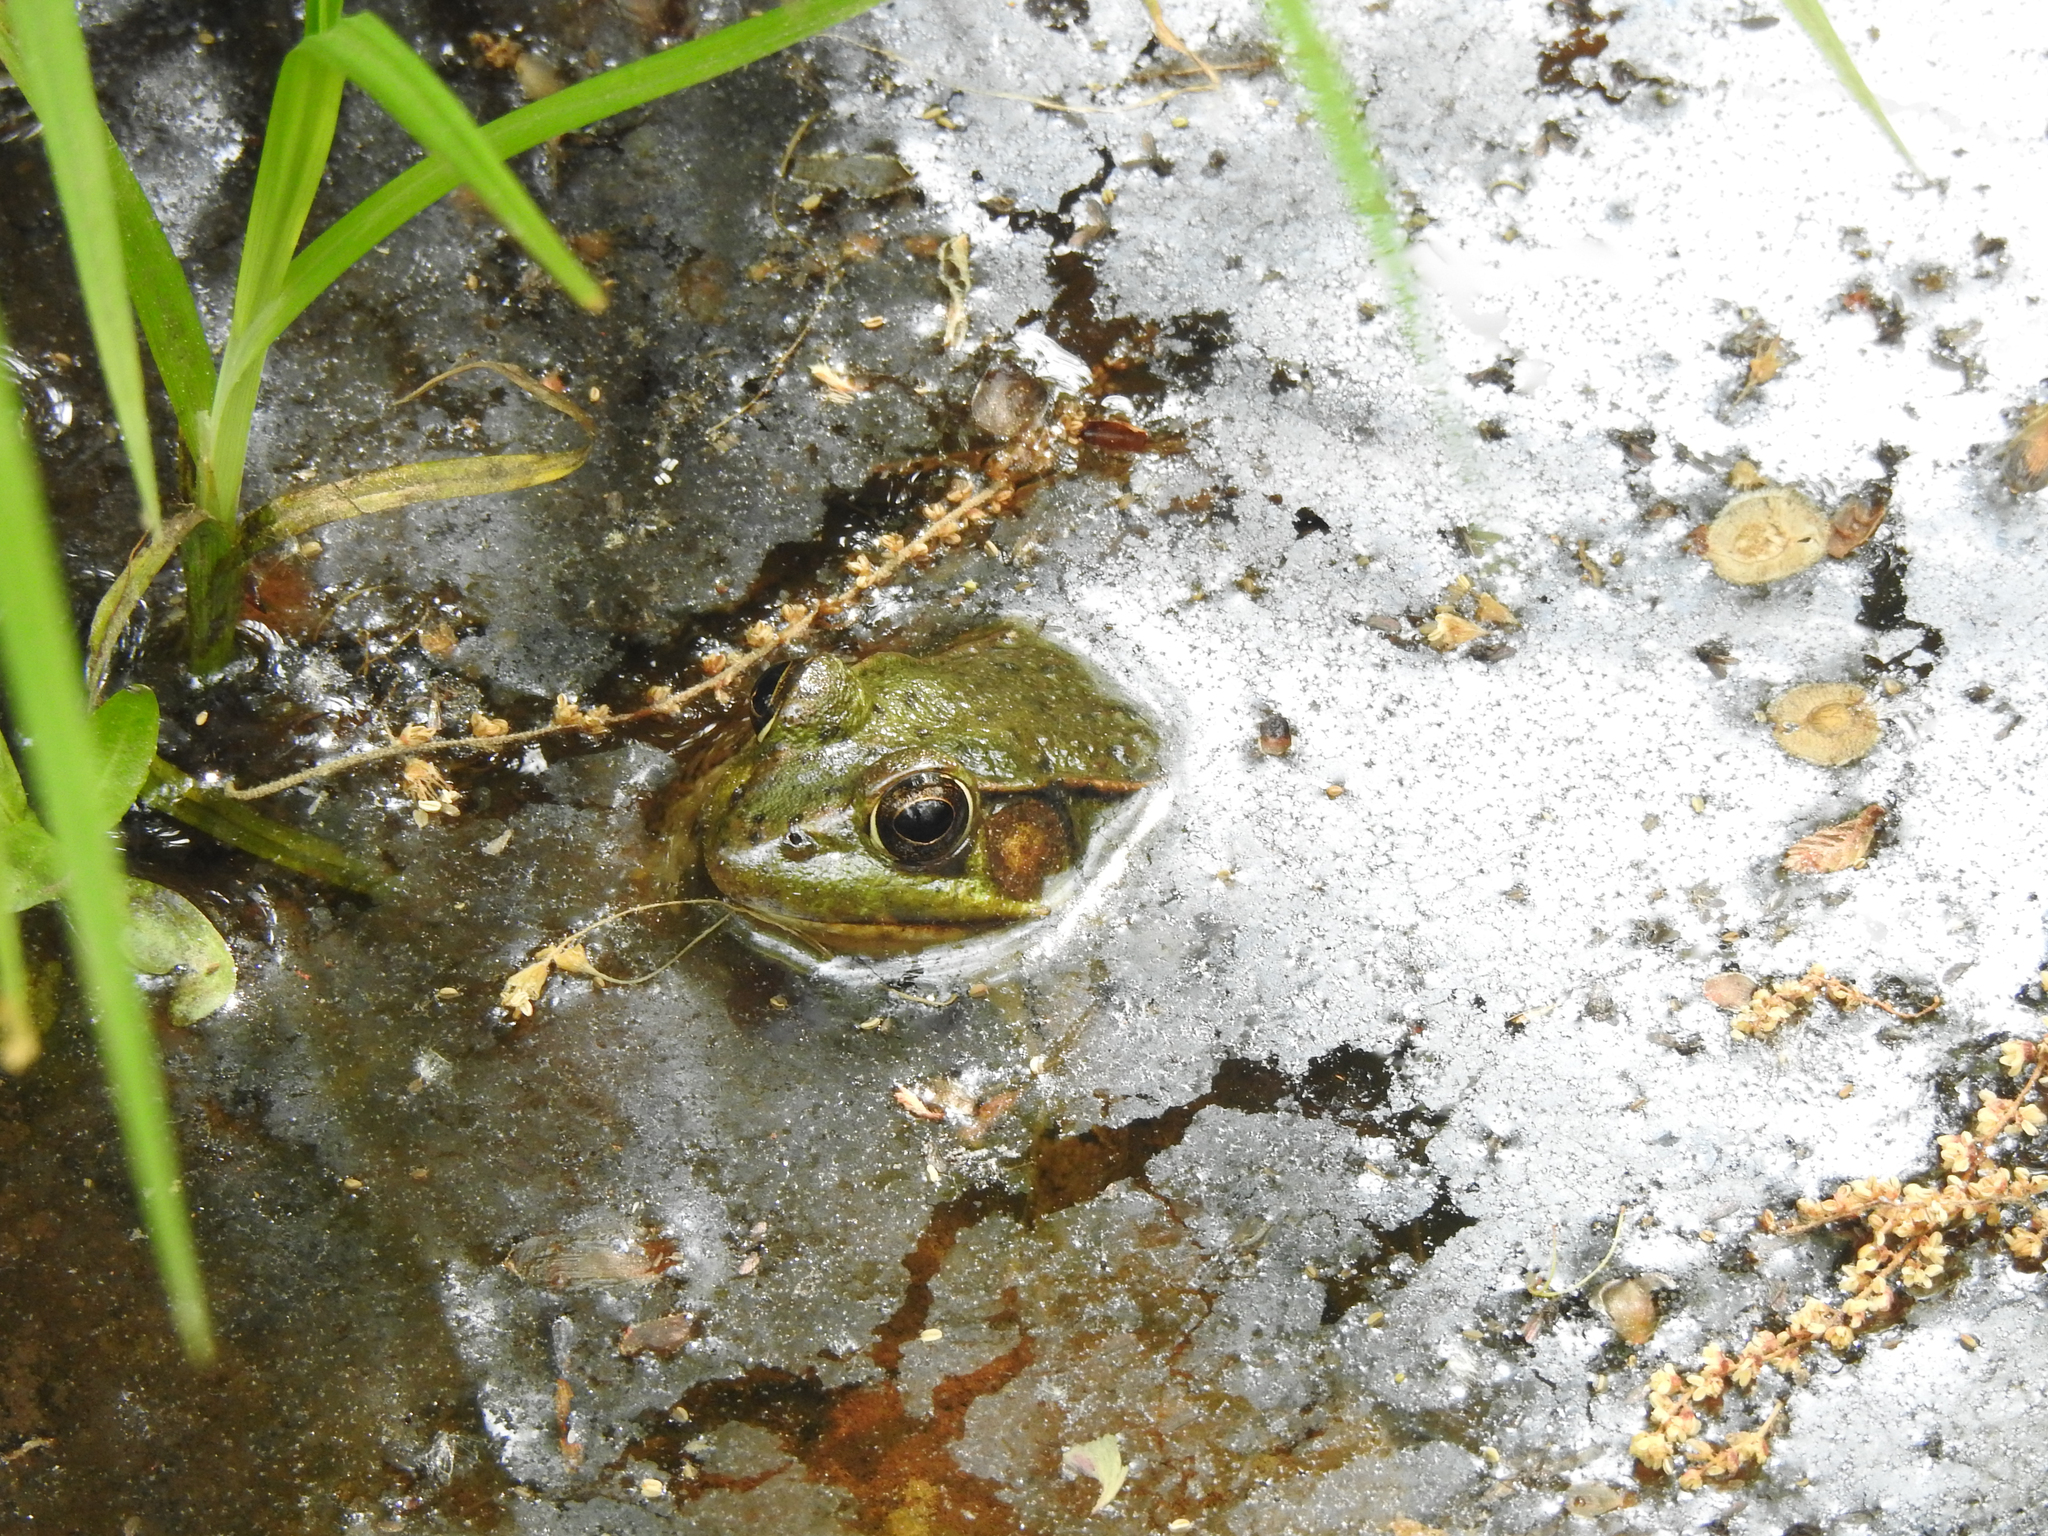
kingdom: Animalia
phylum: Chordata
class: Amphibia
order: Anura
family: Ranidae
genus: Lithobates
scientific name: Lithobates clamitans
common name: Green frog
